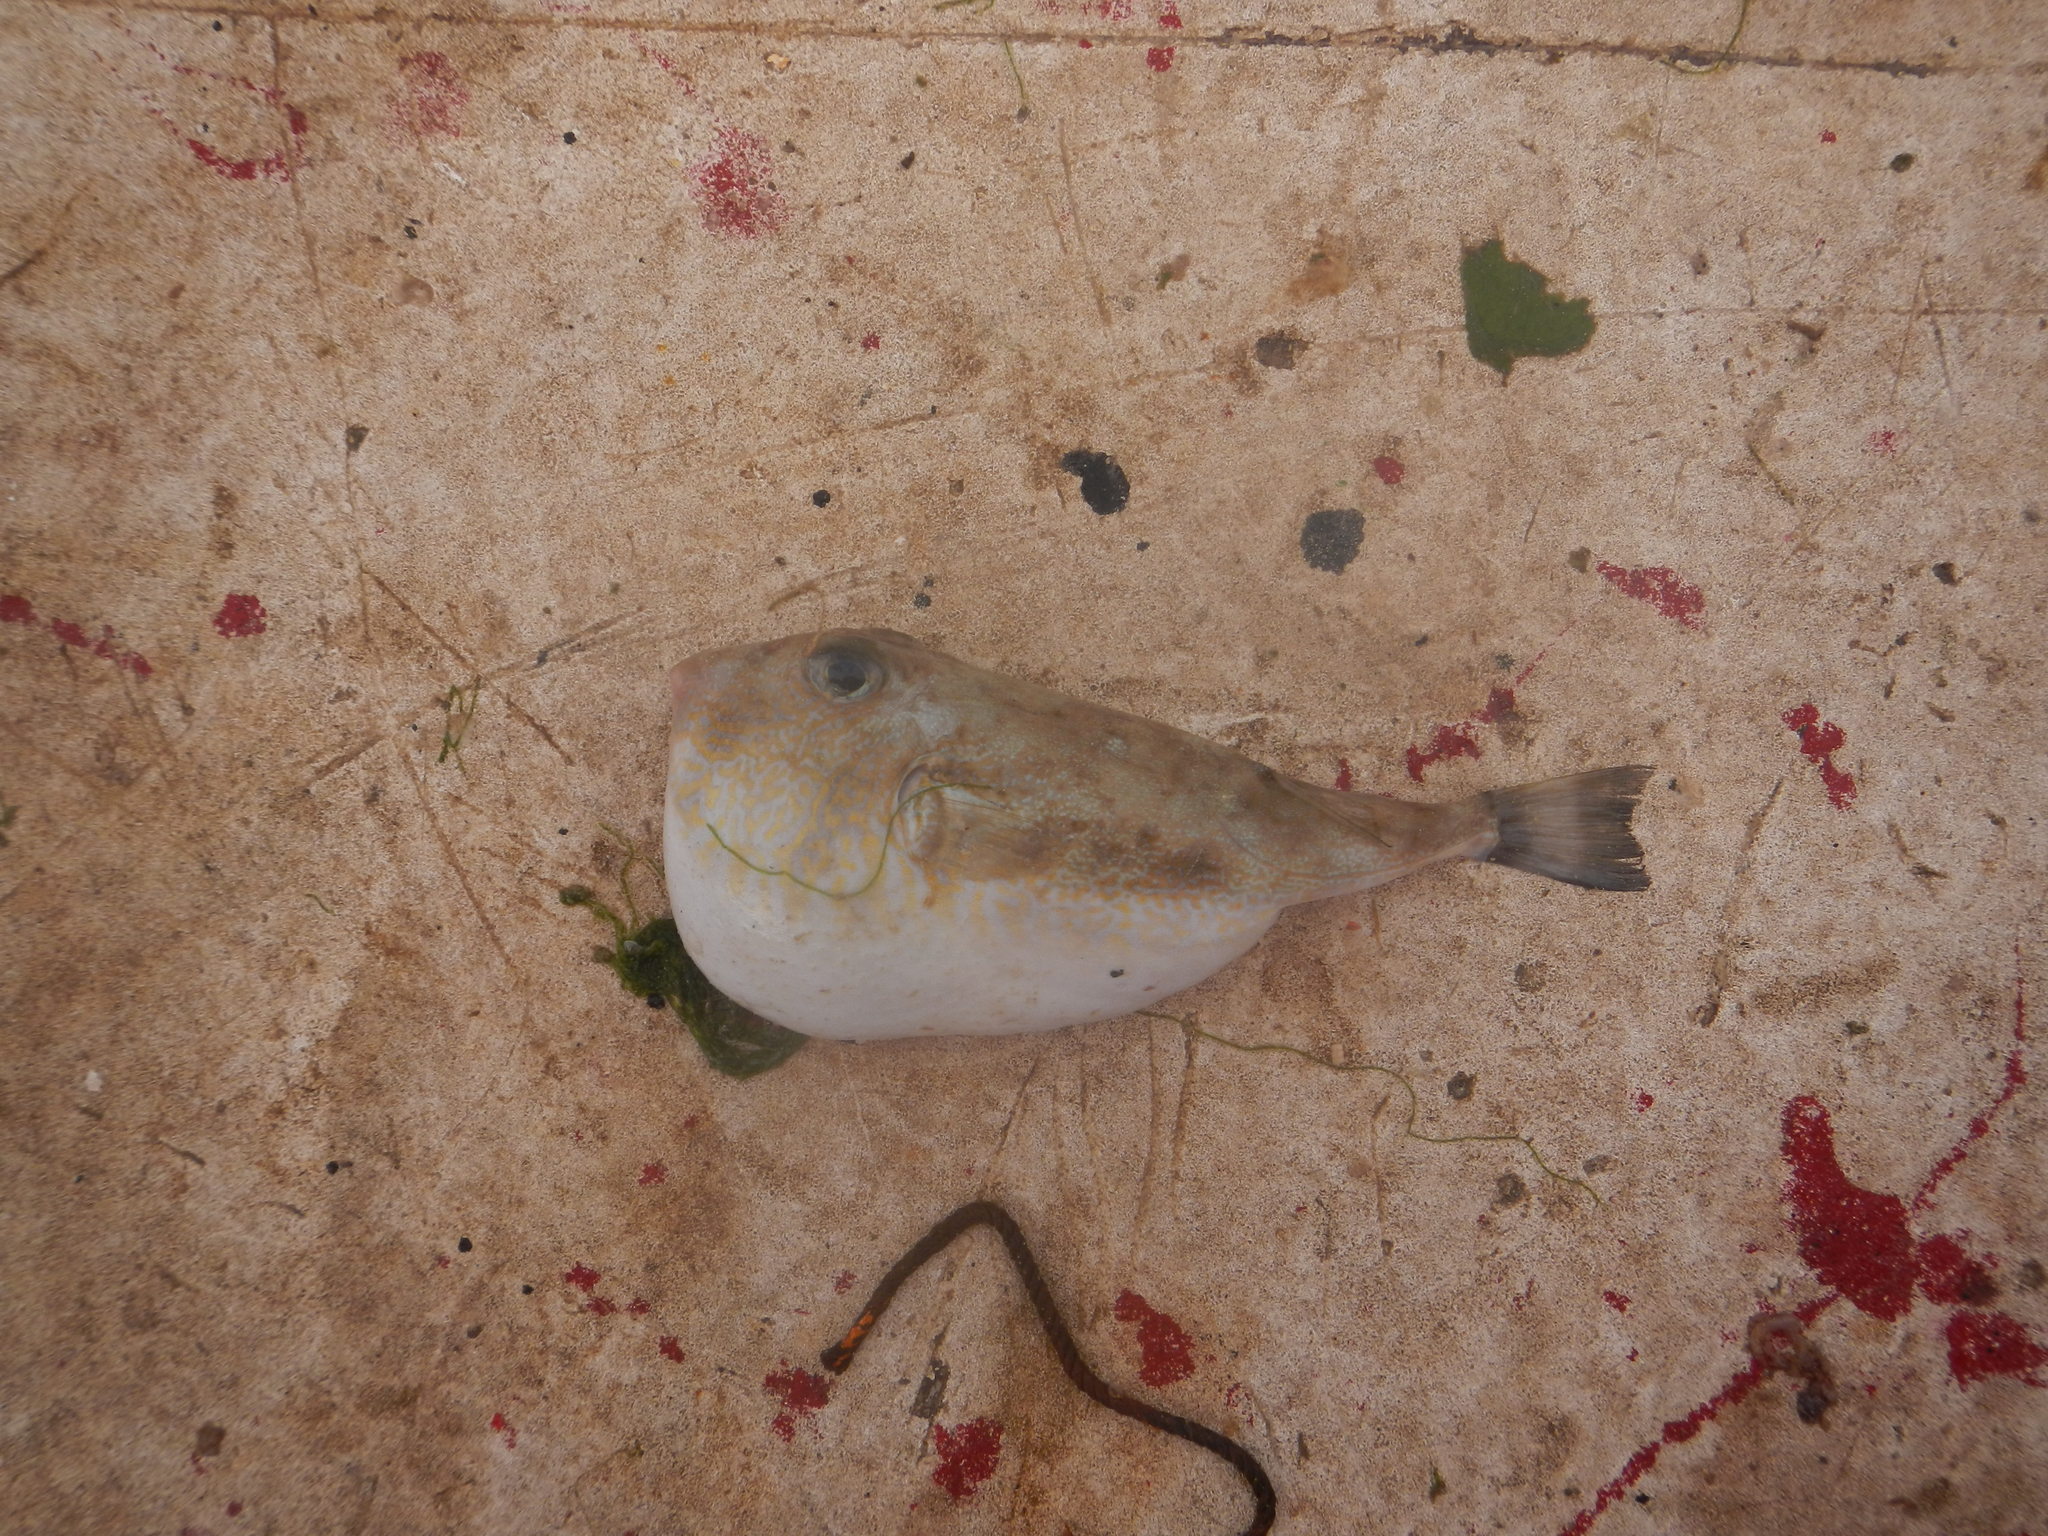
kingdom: Animalia
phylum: Chordata
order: Tetraodontiformes
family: Tetraodontidae
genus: Sphoeroides
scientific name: Sphoeroides dorsalis
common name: Marbled puffer
